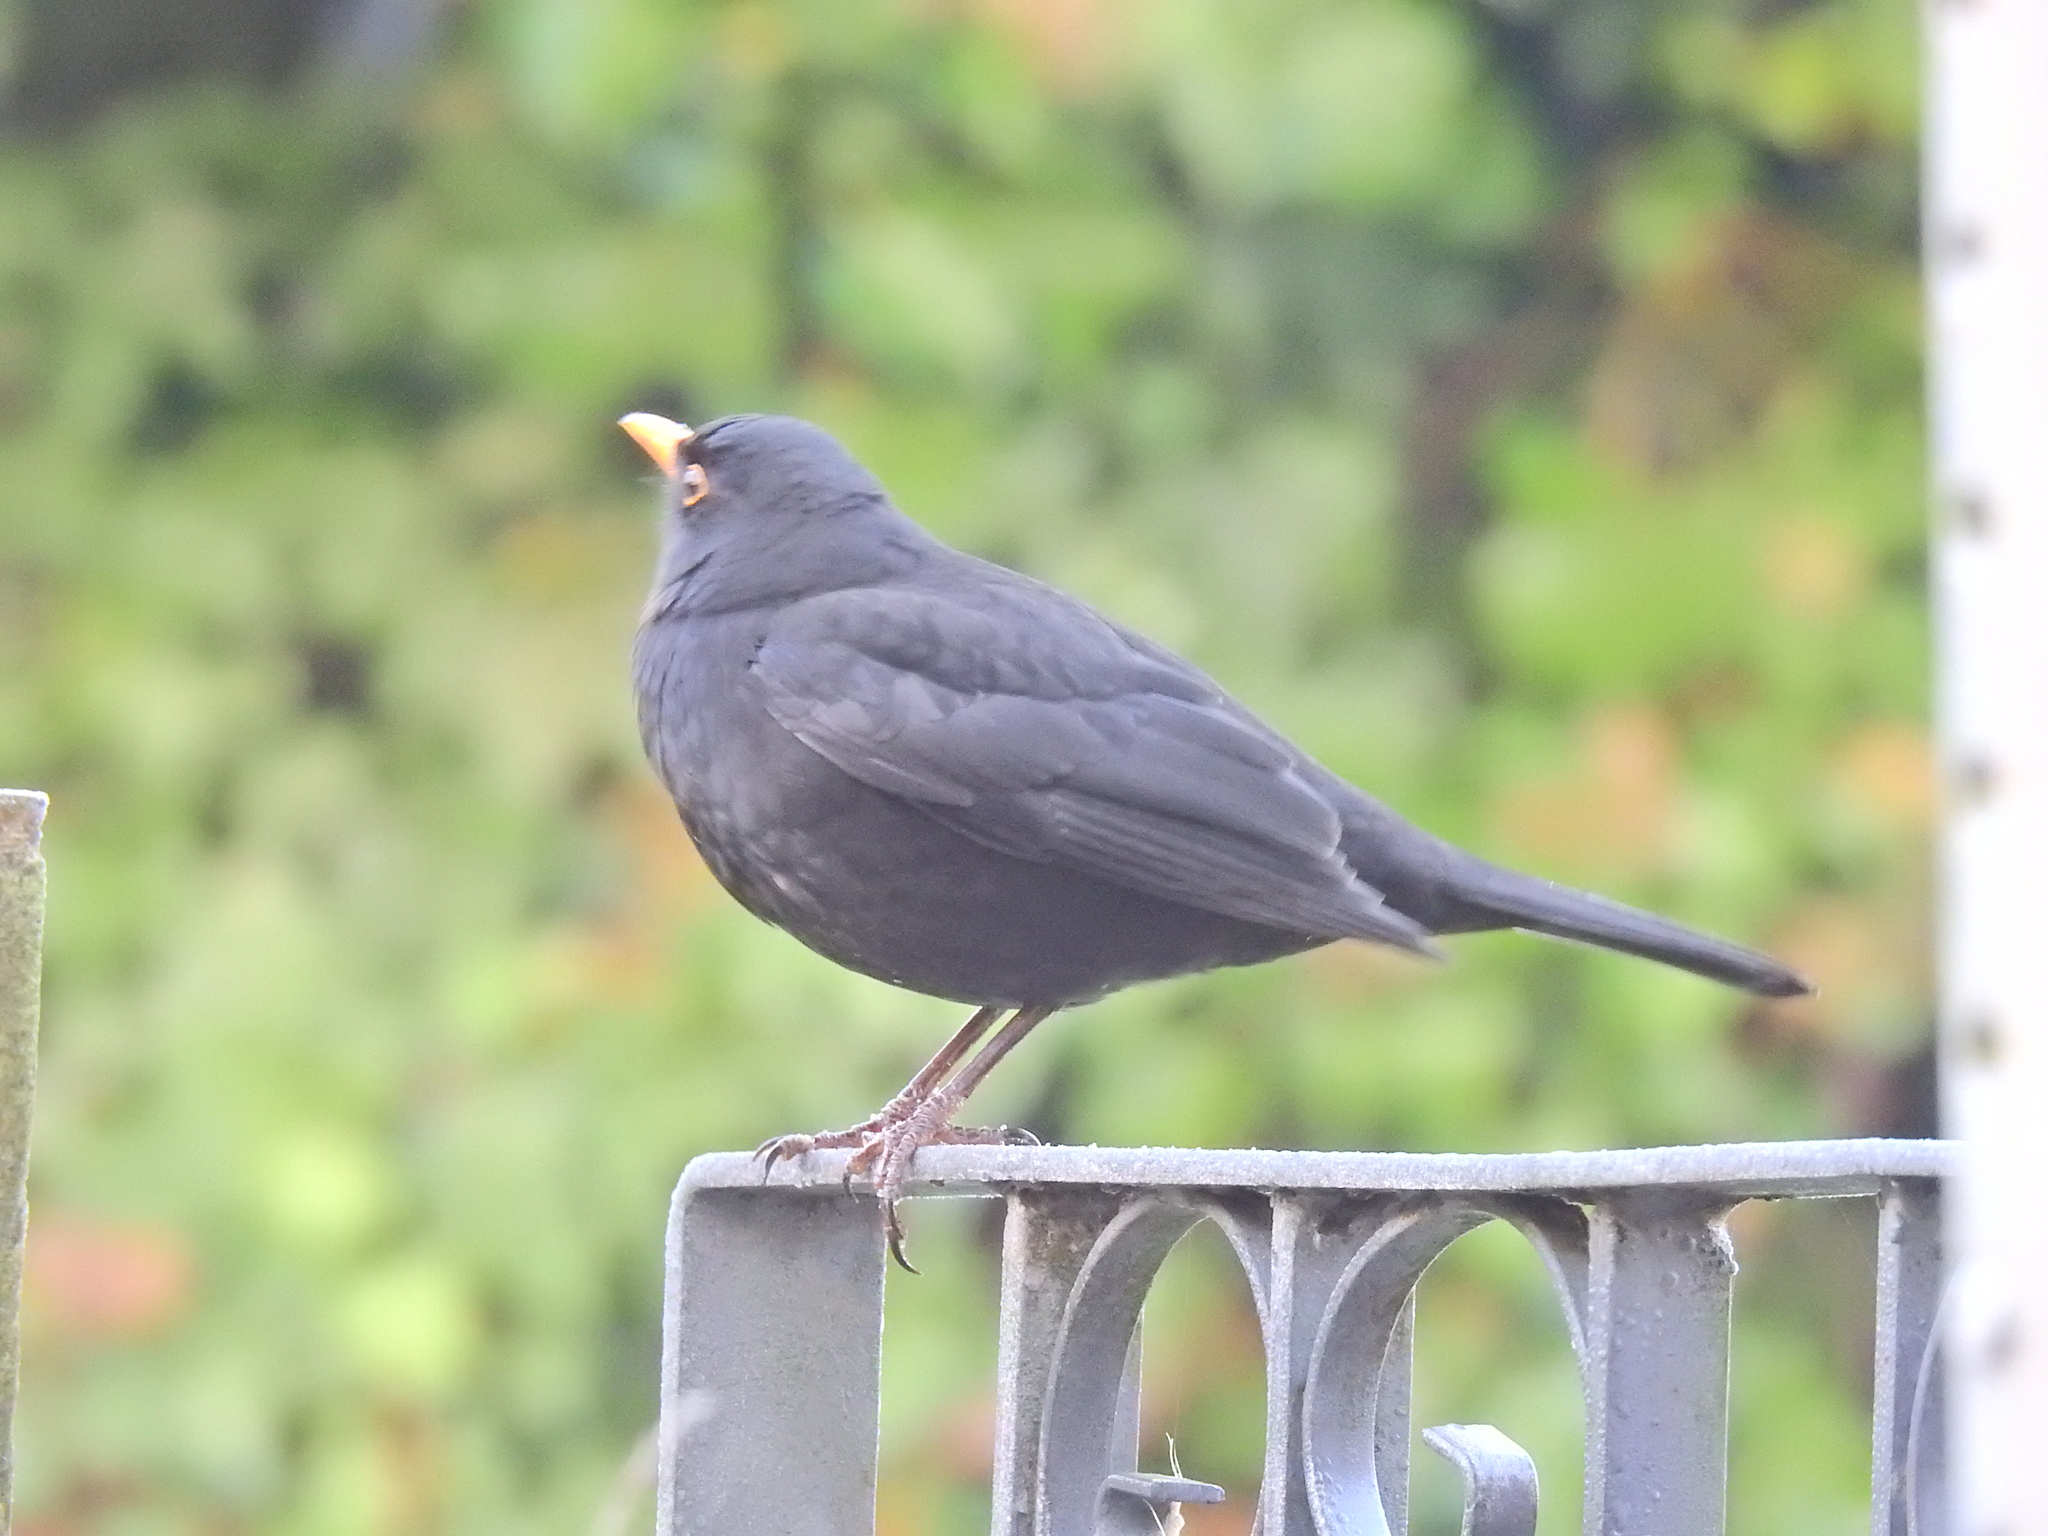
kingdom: Animalia
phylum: Chordata
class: Aves
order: Passeriformes
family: Turdidae
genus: Turdus
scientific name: Turdus merula
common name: Common blackbird
